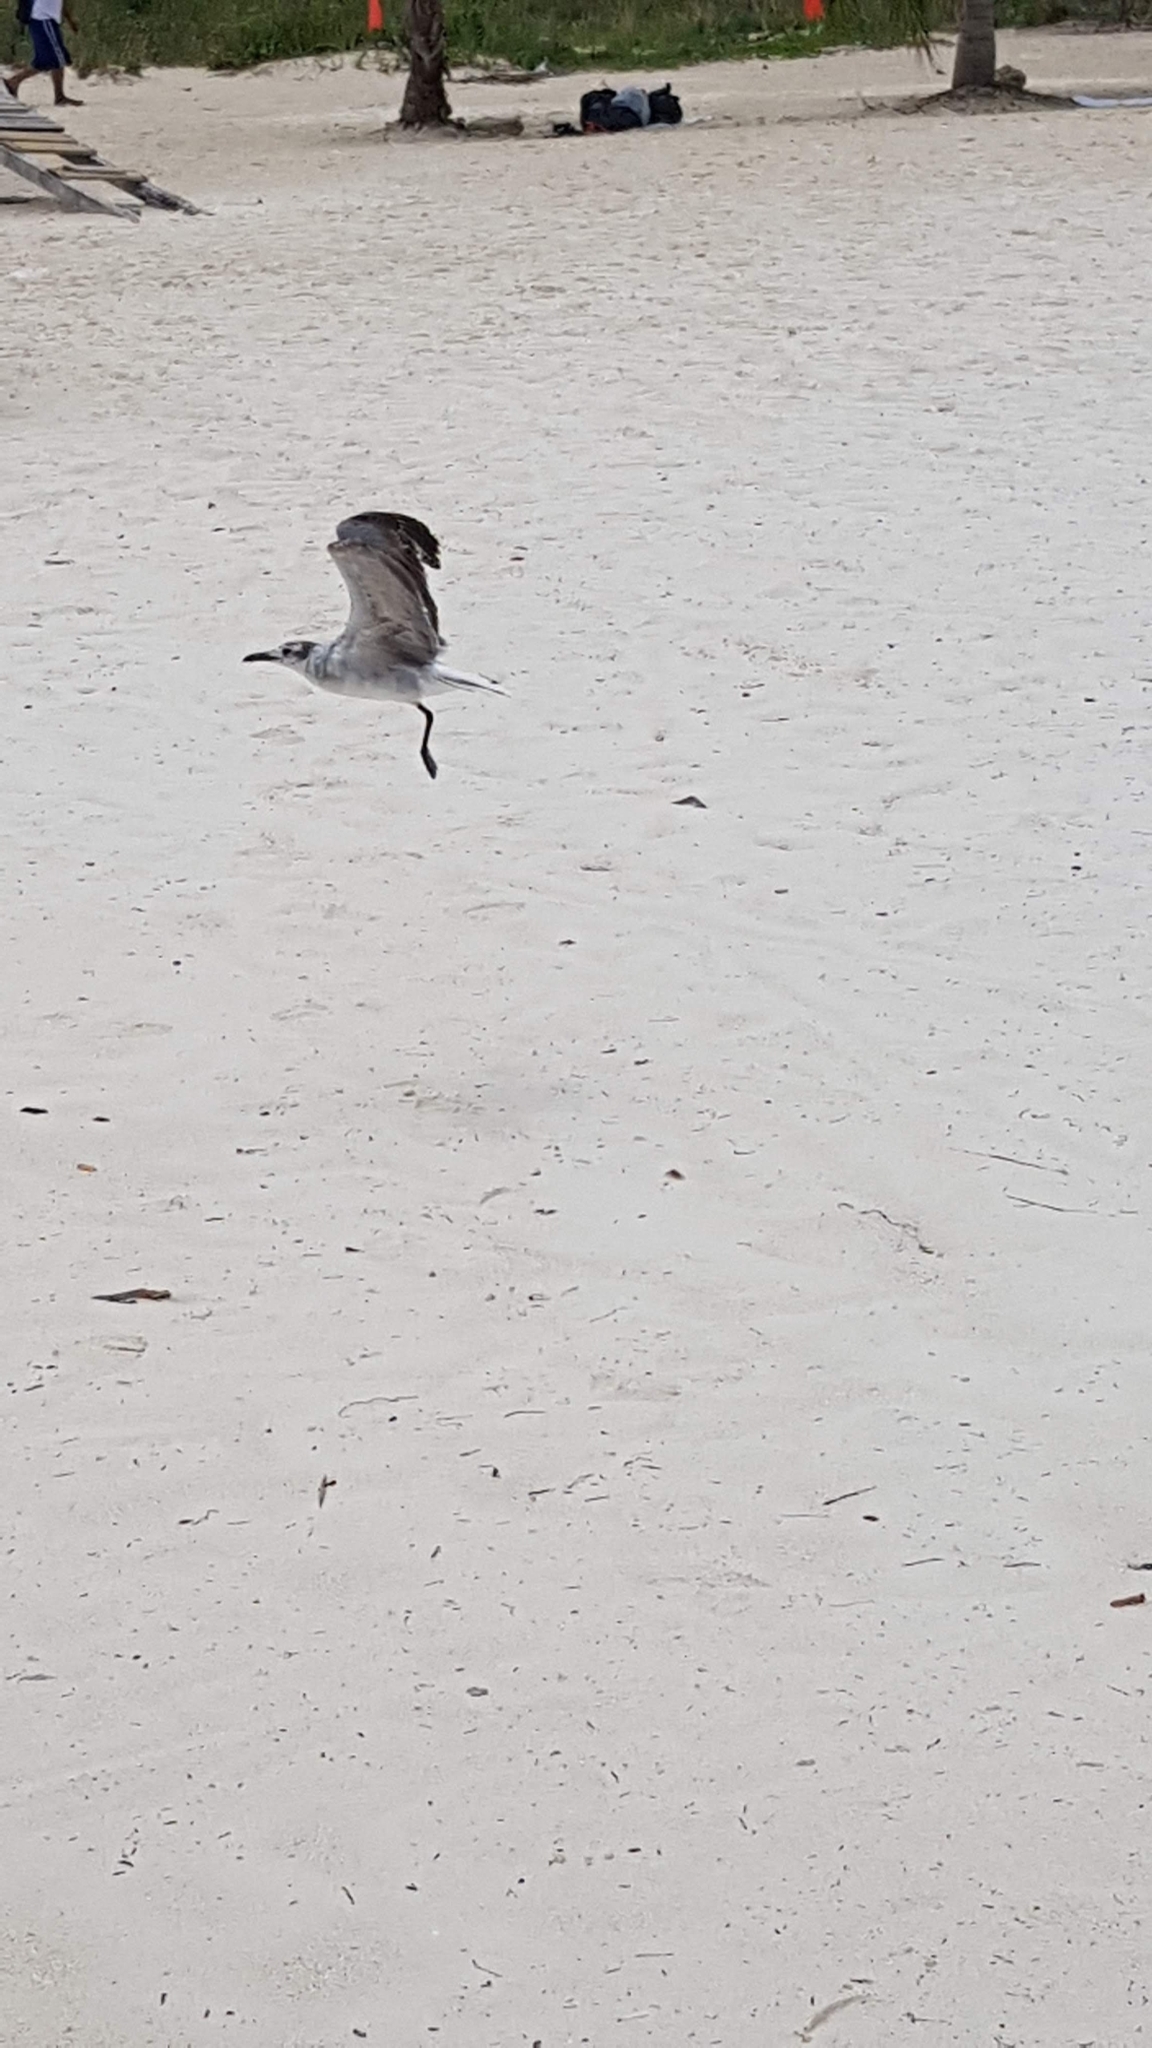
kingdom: Animalia
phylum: Chordata
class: Aves
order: Charadriiformes
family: Laridae
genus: Leucophaeus
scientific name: Leucophaeus atricilla
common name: Laughing gull
